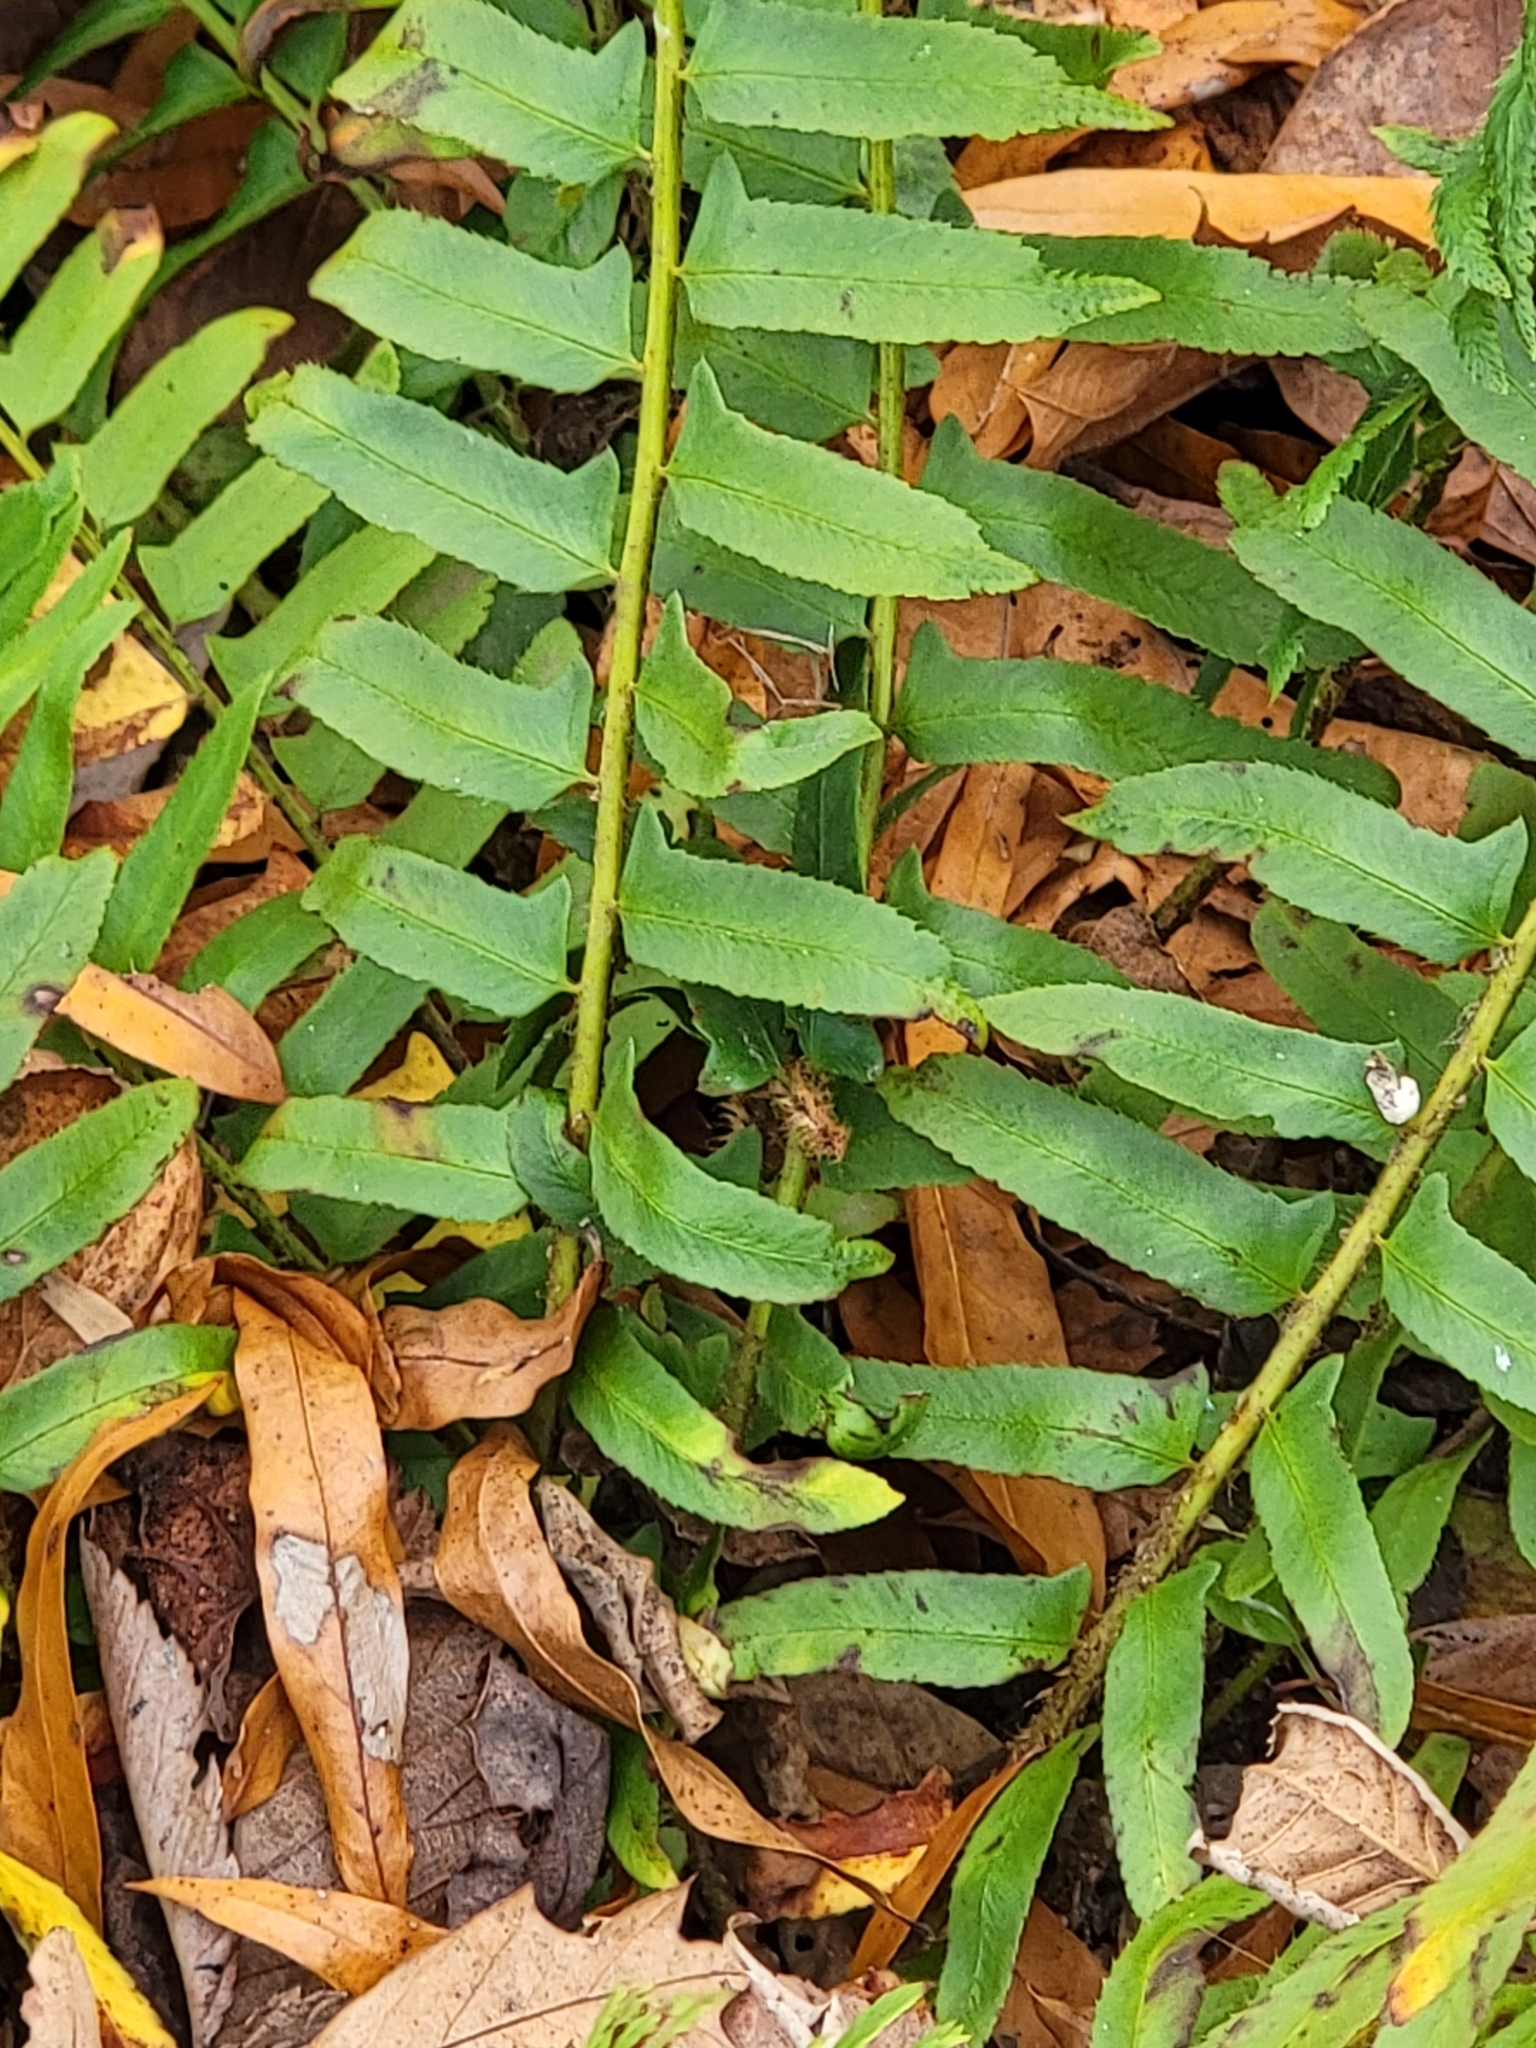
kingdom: Plantae
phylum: Tracheophyta
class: Polypodiopsida
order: Polypodiales
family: Dryopteridaceae
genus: Polystichum
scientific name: Polystichum acrostichoides
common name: Christmas fern
